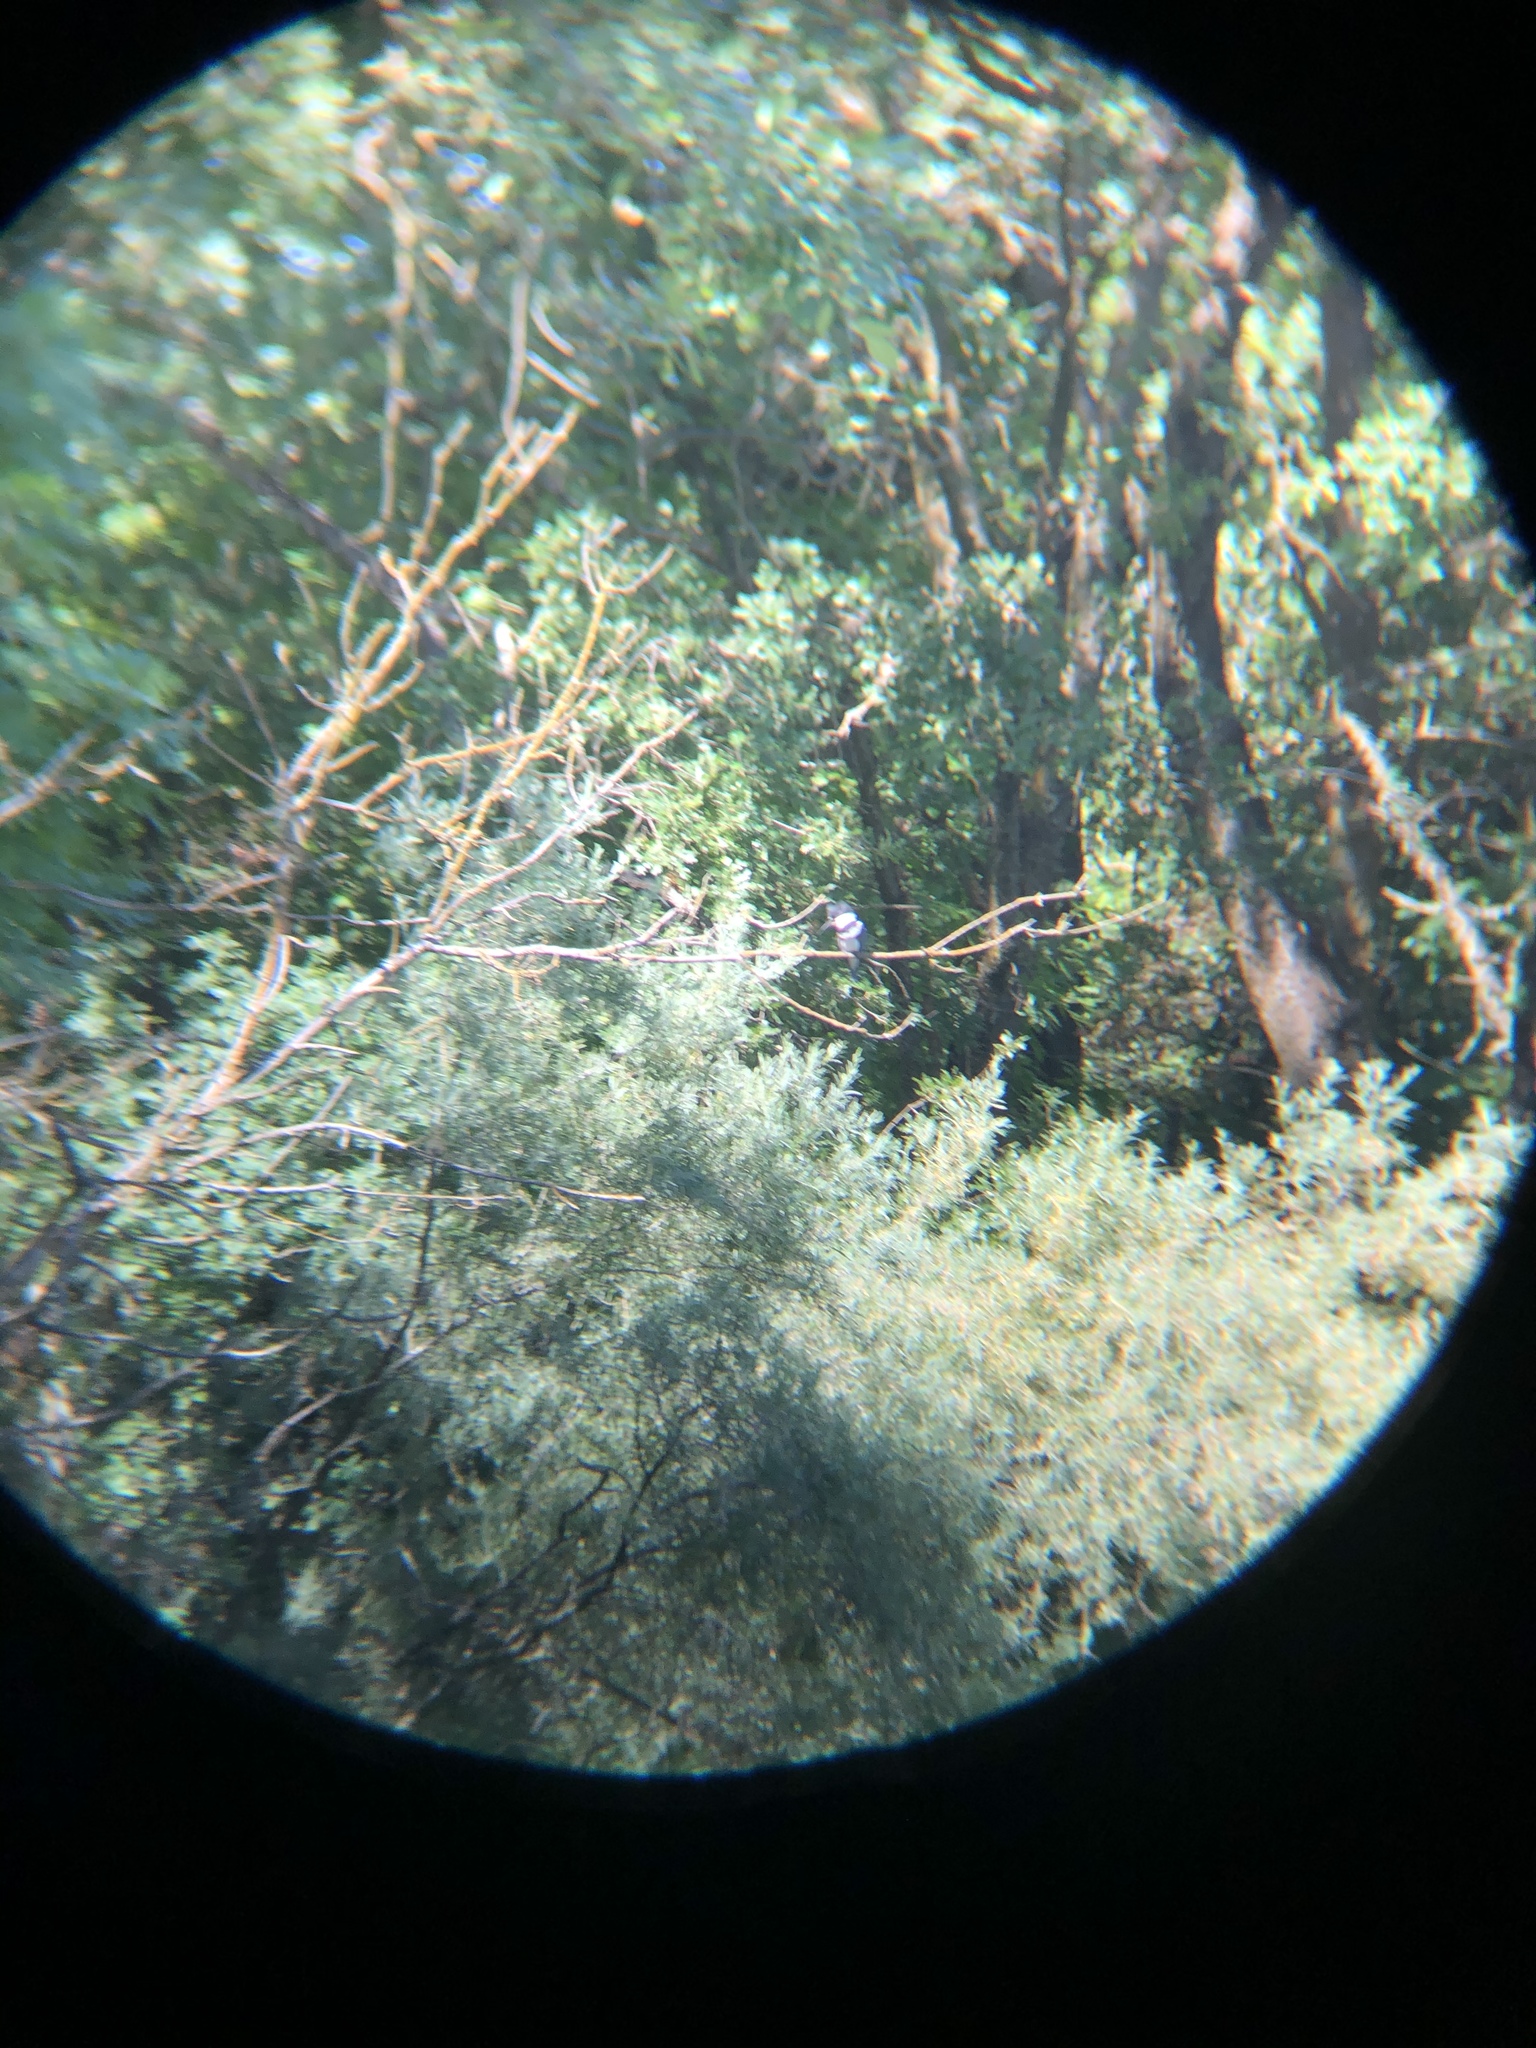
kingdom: Animalia
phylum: Chordata
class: Aves
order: Coraciiformes
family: Alcedinidae
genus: Megaceryle
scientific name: Megaceryle alcyon
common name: Belted kingfisher
